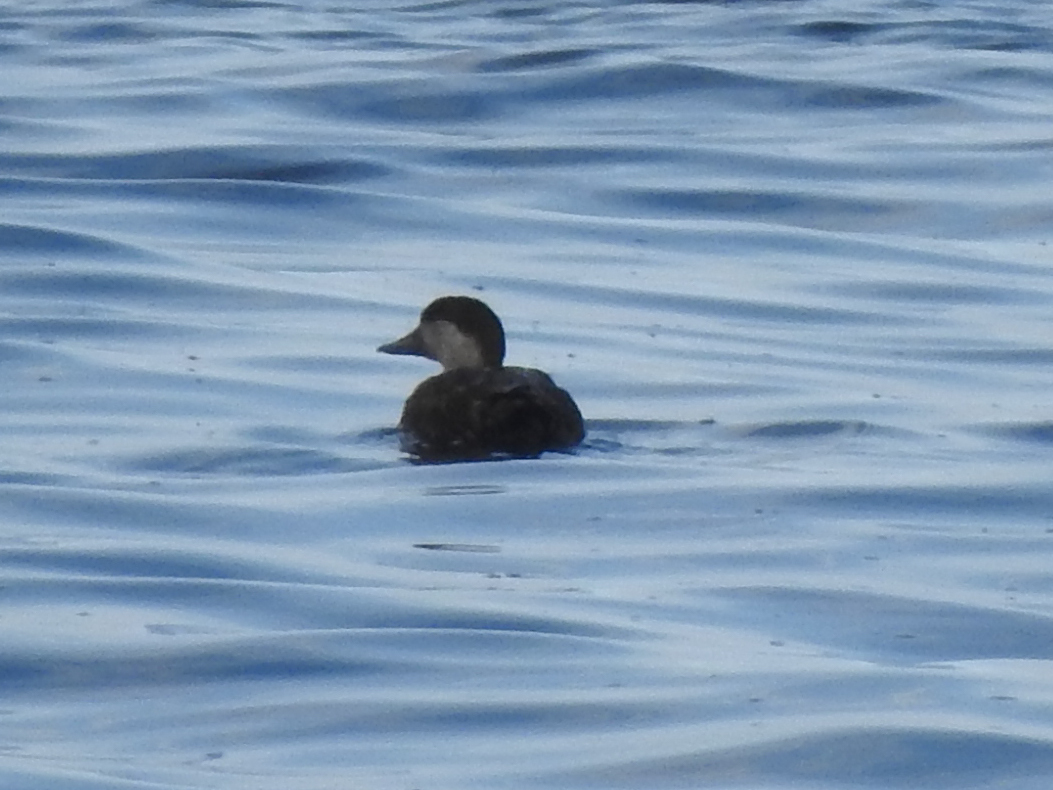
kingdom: Animalia
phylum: Chordata
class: Aves
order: Anseriformes
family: Anatidae
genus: Melanitta
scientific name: Melanitta americana
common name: Black scoter
